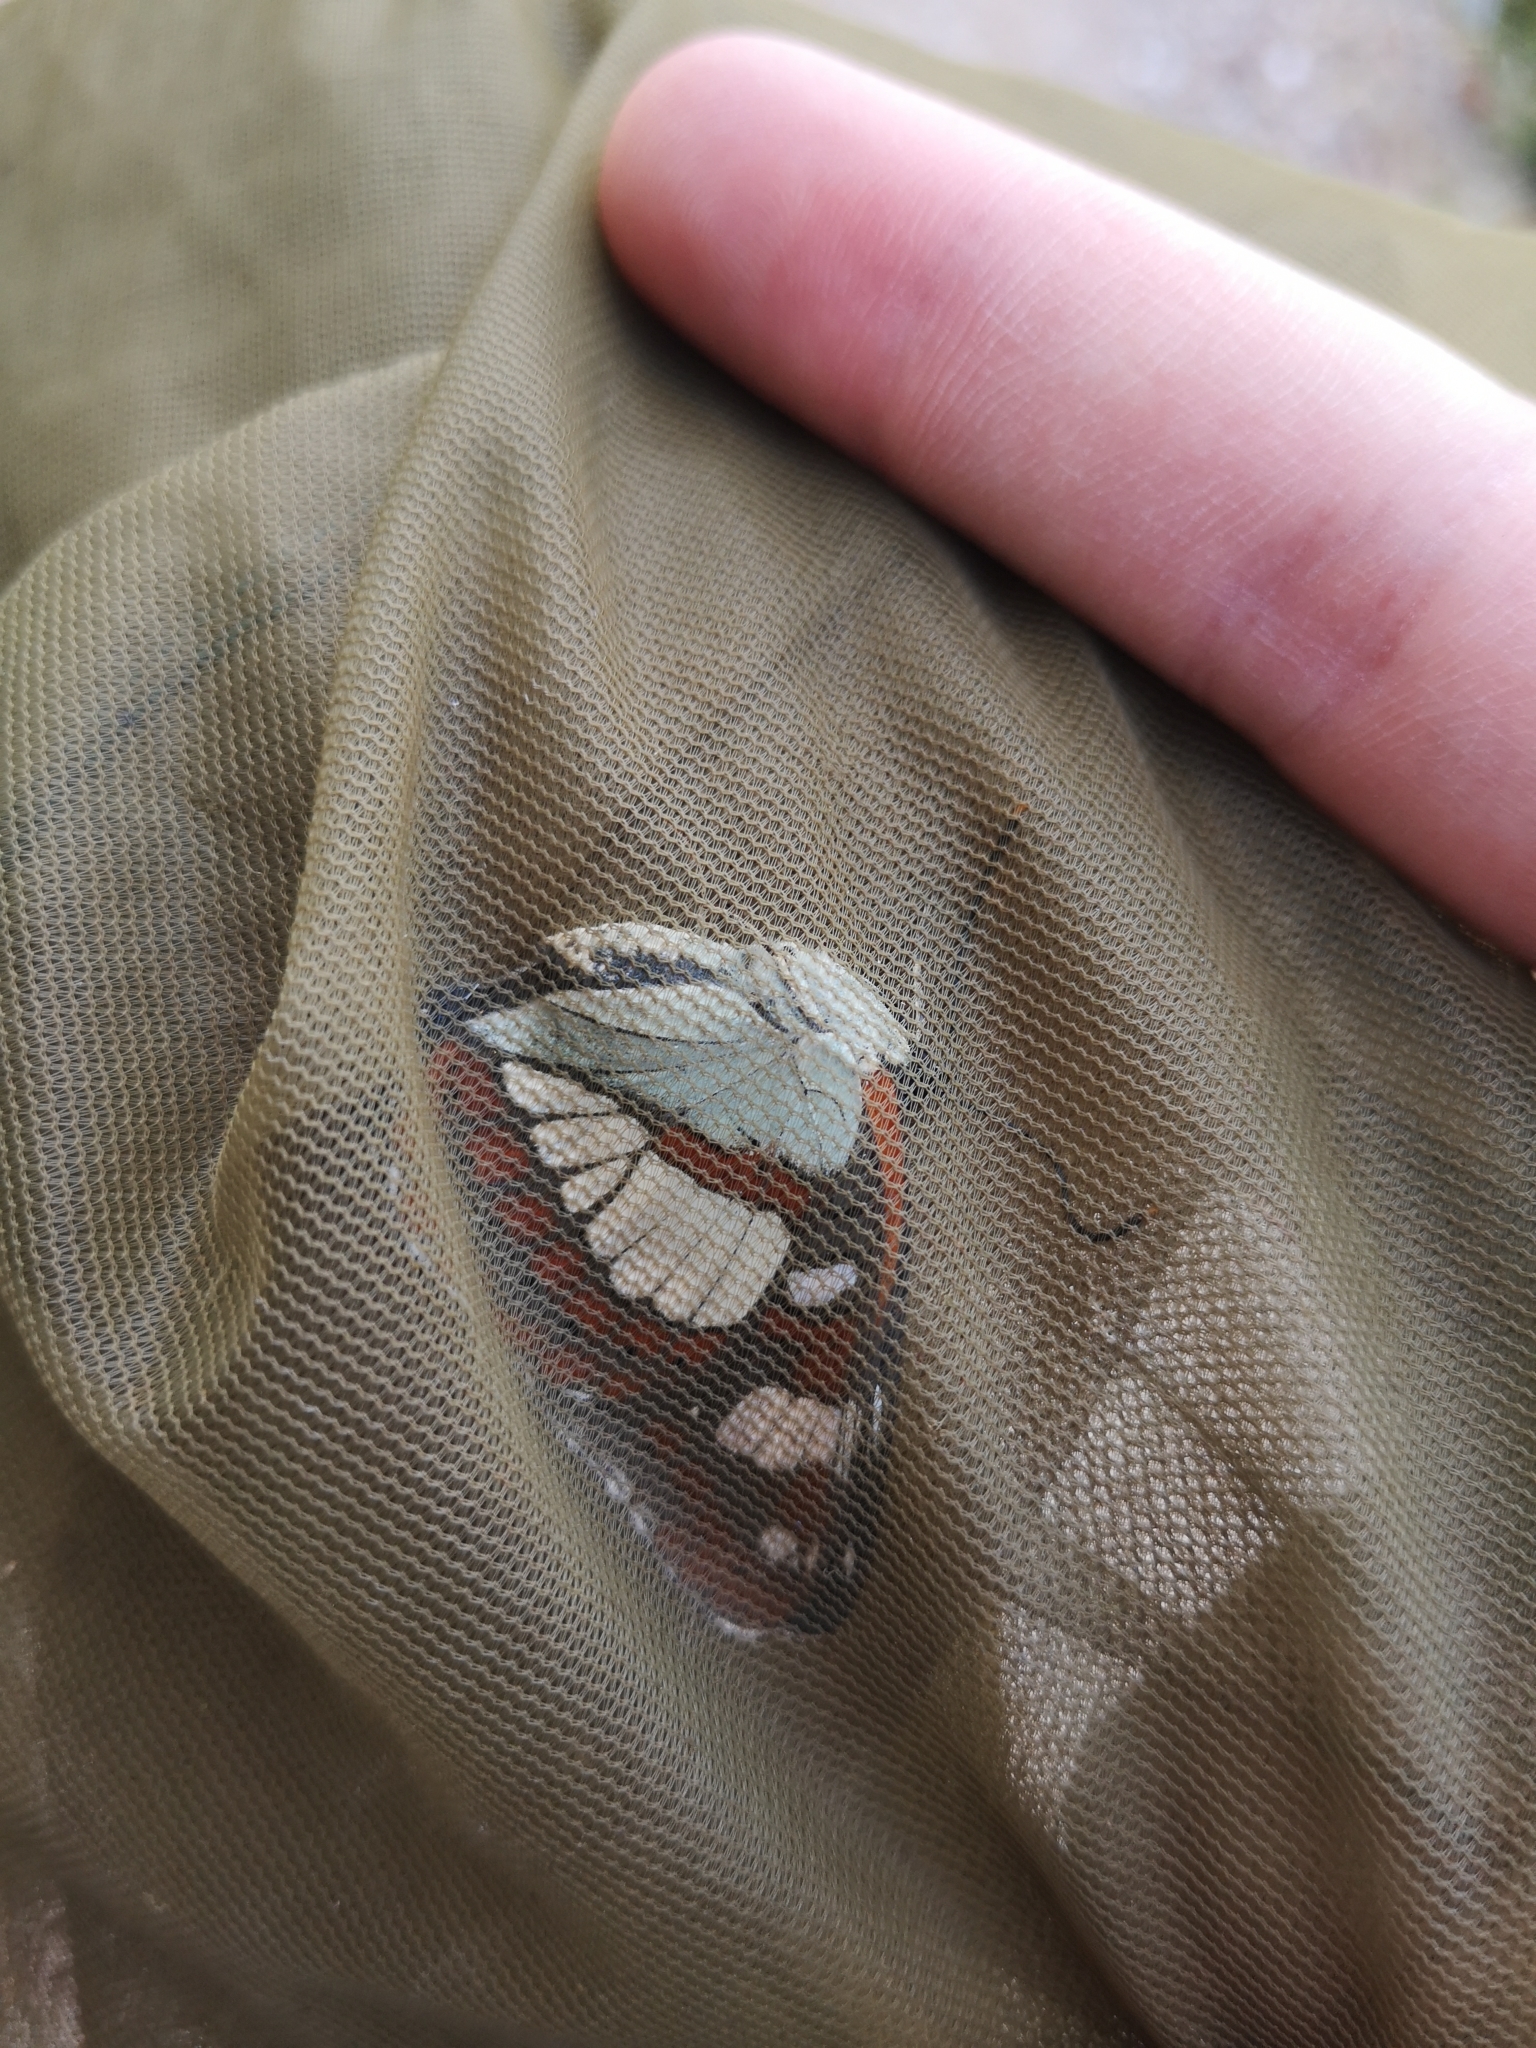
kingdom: Animalia
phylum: Arthropoda
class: Insecta
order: Lepidoptera
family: Nymphalidae
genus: Limenitis
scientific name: Limenitis reducta
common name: Southern white admiral
